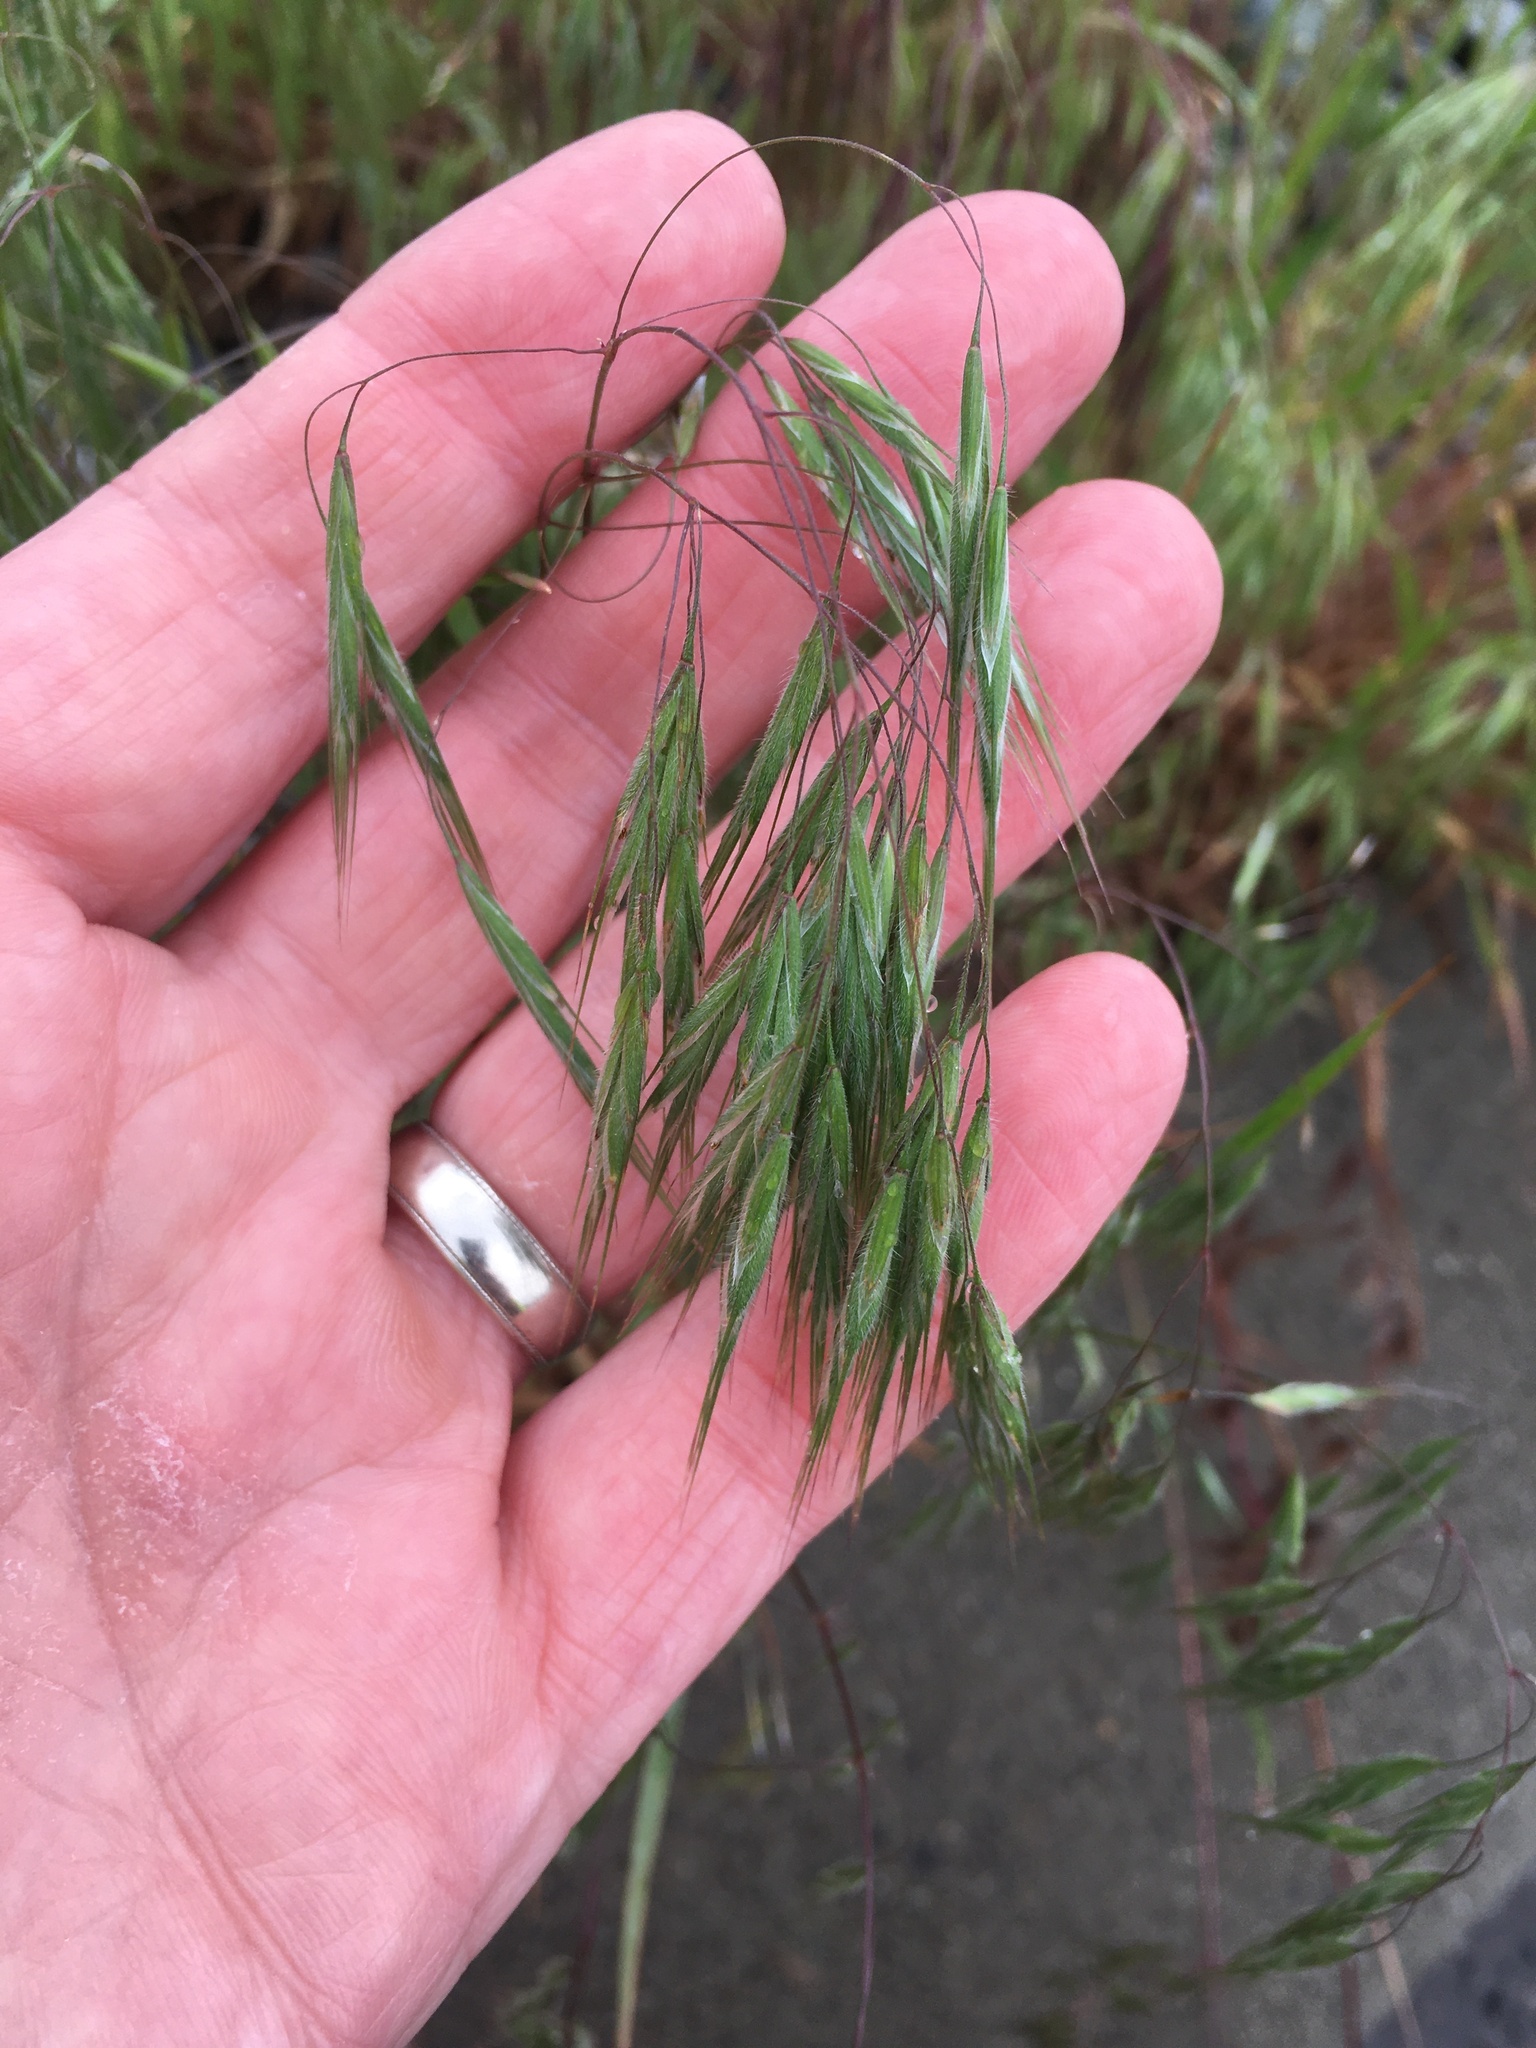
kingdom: Plantae
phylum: Tracheophyta
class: Liliopsida
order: Poales
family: Poaceae
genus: Bromus
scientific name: Bromus tectorum
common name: Cheatgrass
